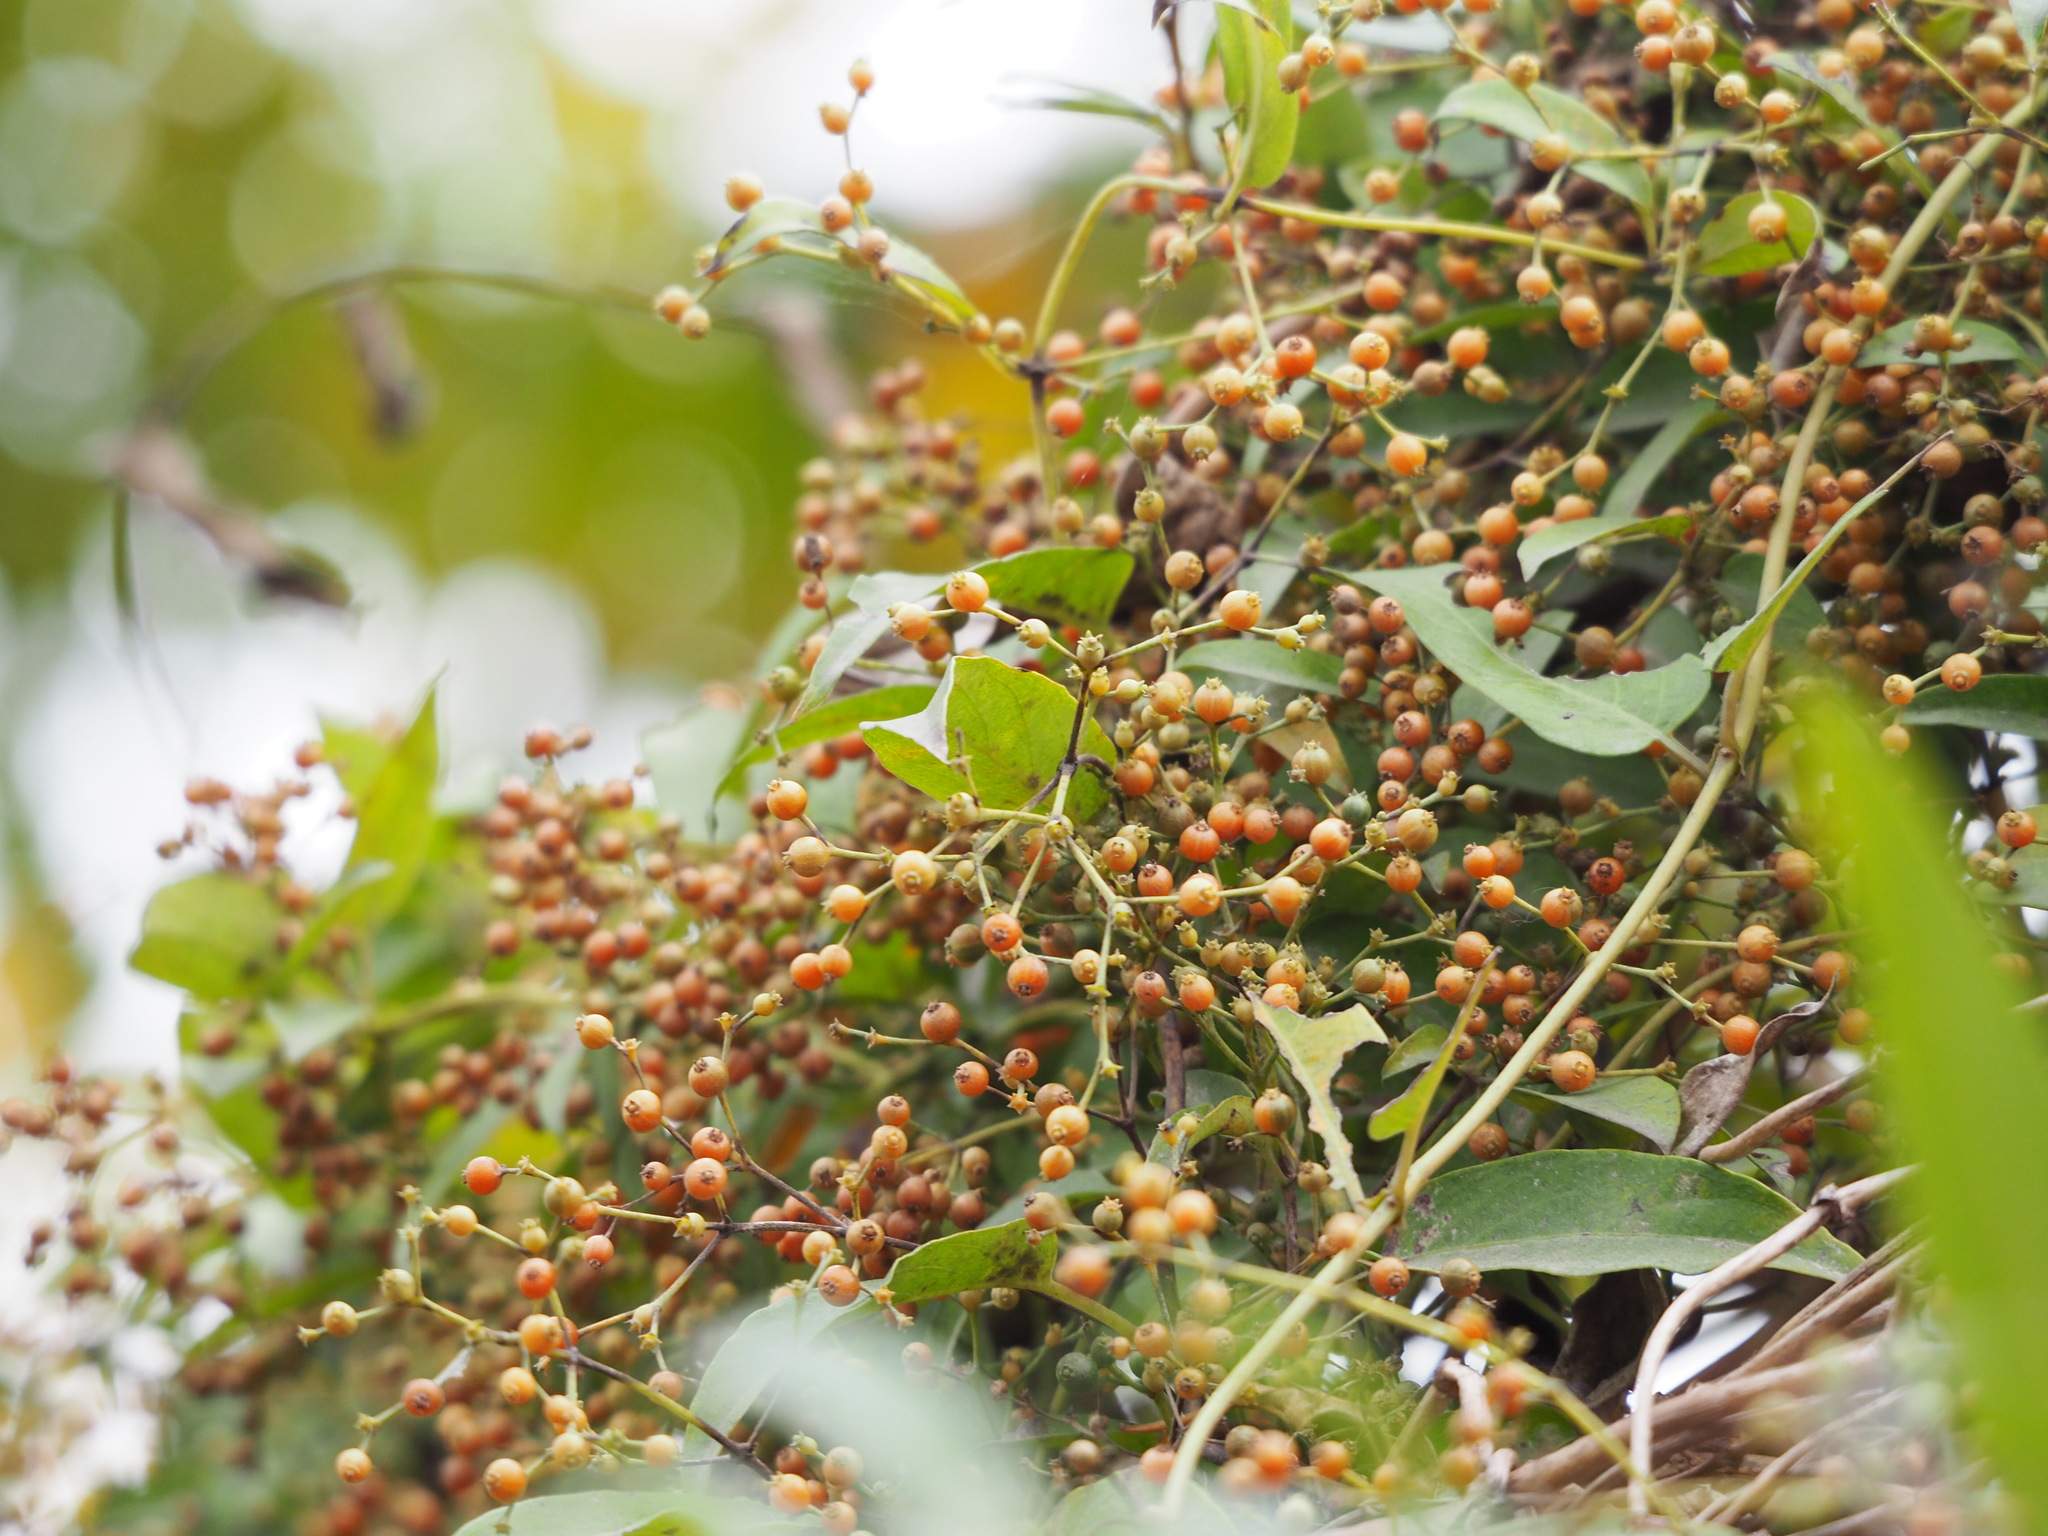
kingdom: Plantae
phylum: Tracheophyta
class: Magnoliopsida
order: Gentianales
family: Rubiaceae
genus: Paederia
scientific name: Paederia foetida
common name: Stinkvine
